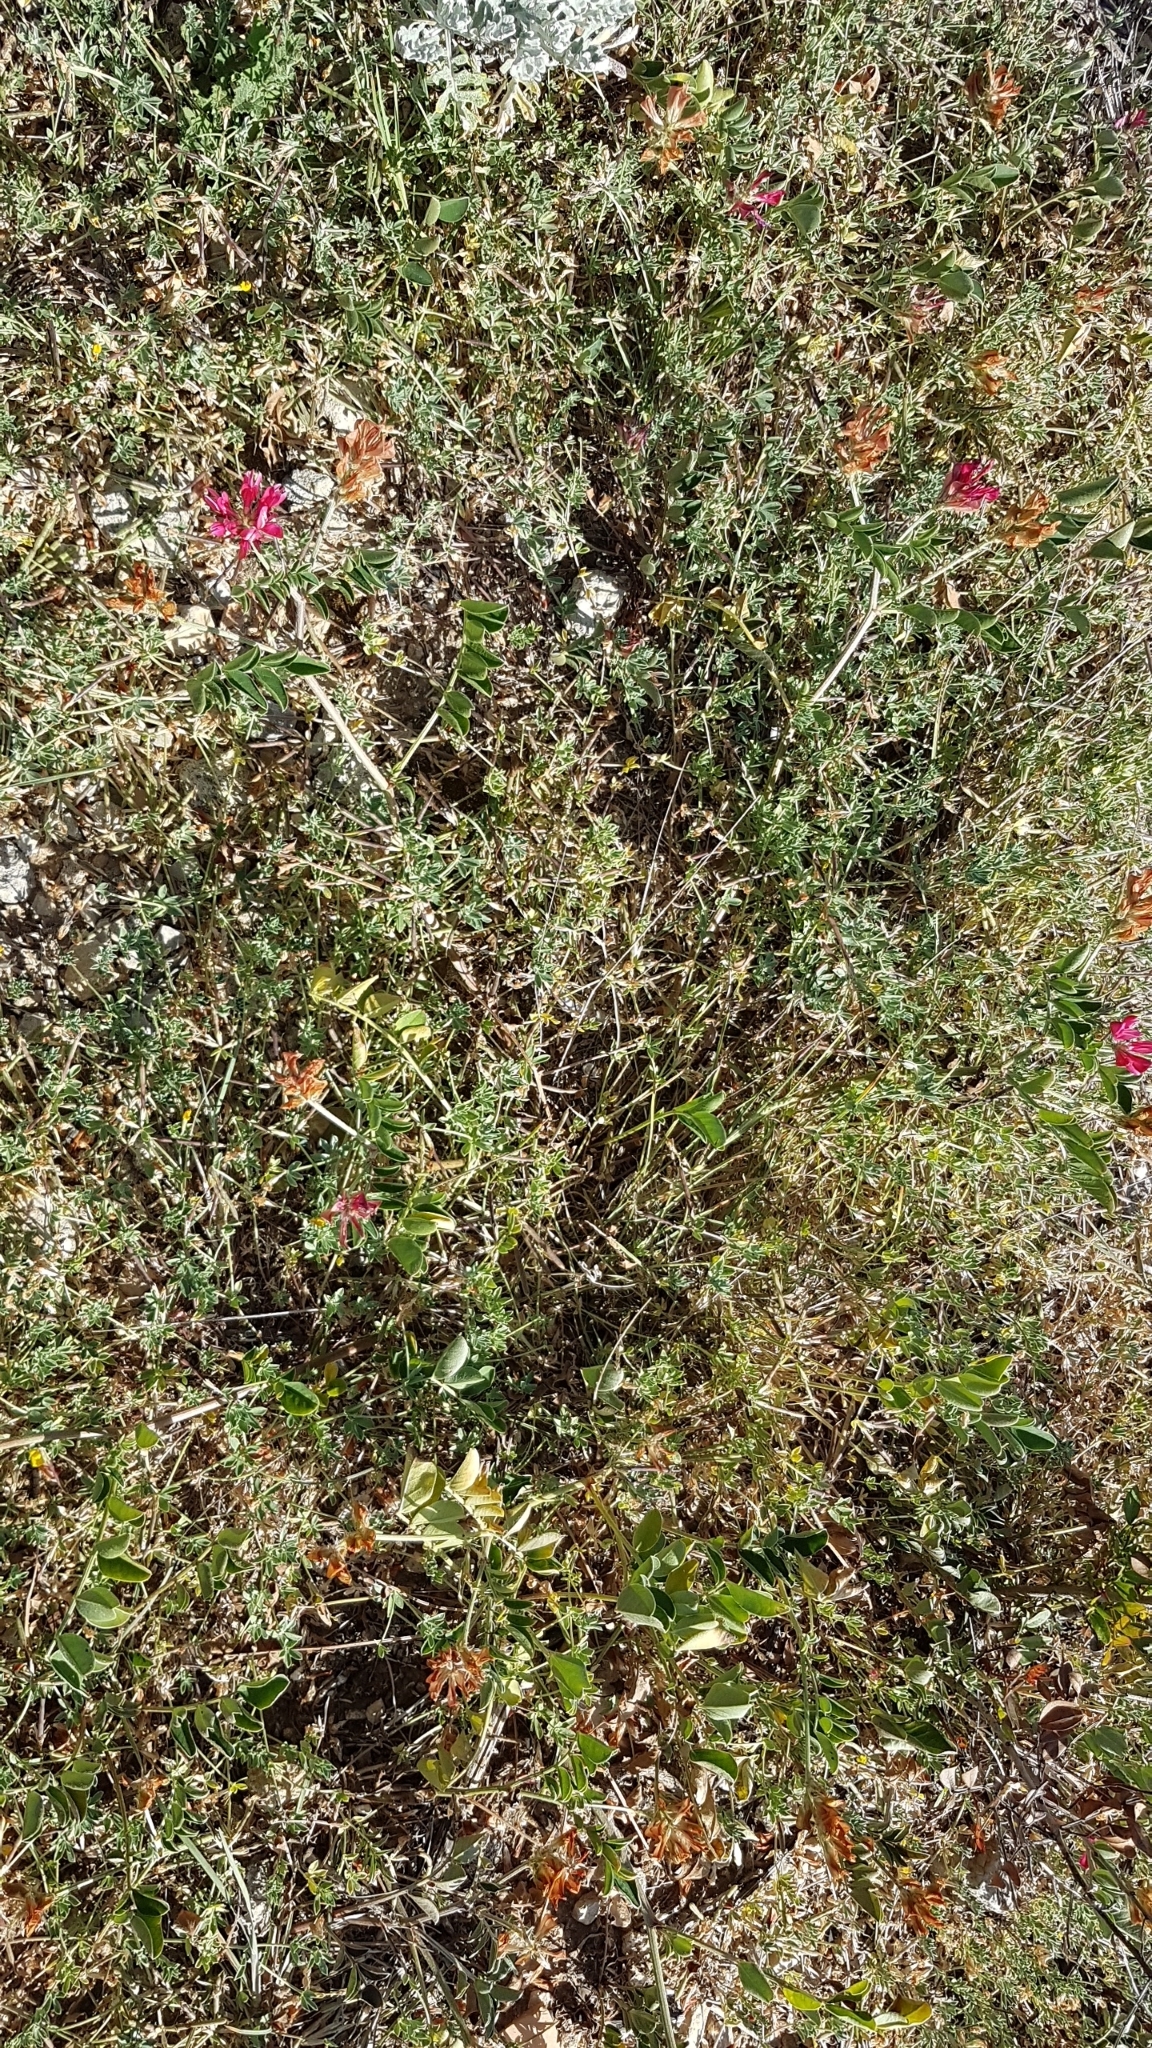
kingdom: Plantae
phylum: Tracheophyta
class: Magnoliopsida
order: Fabales
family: Fabaceae
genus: Sulla
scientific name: Sulla coronaria
